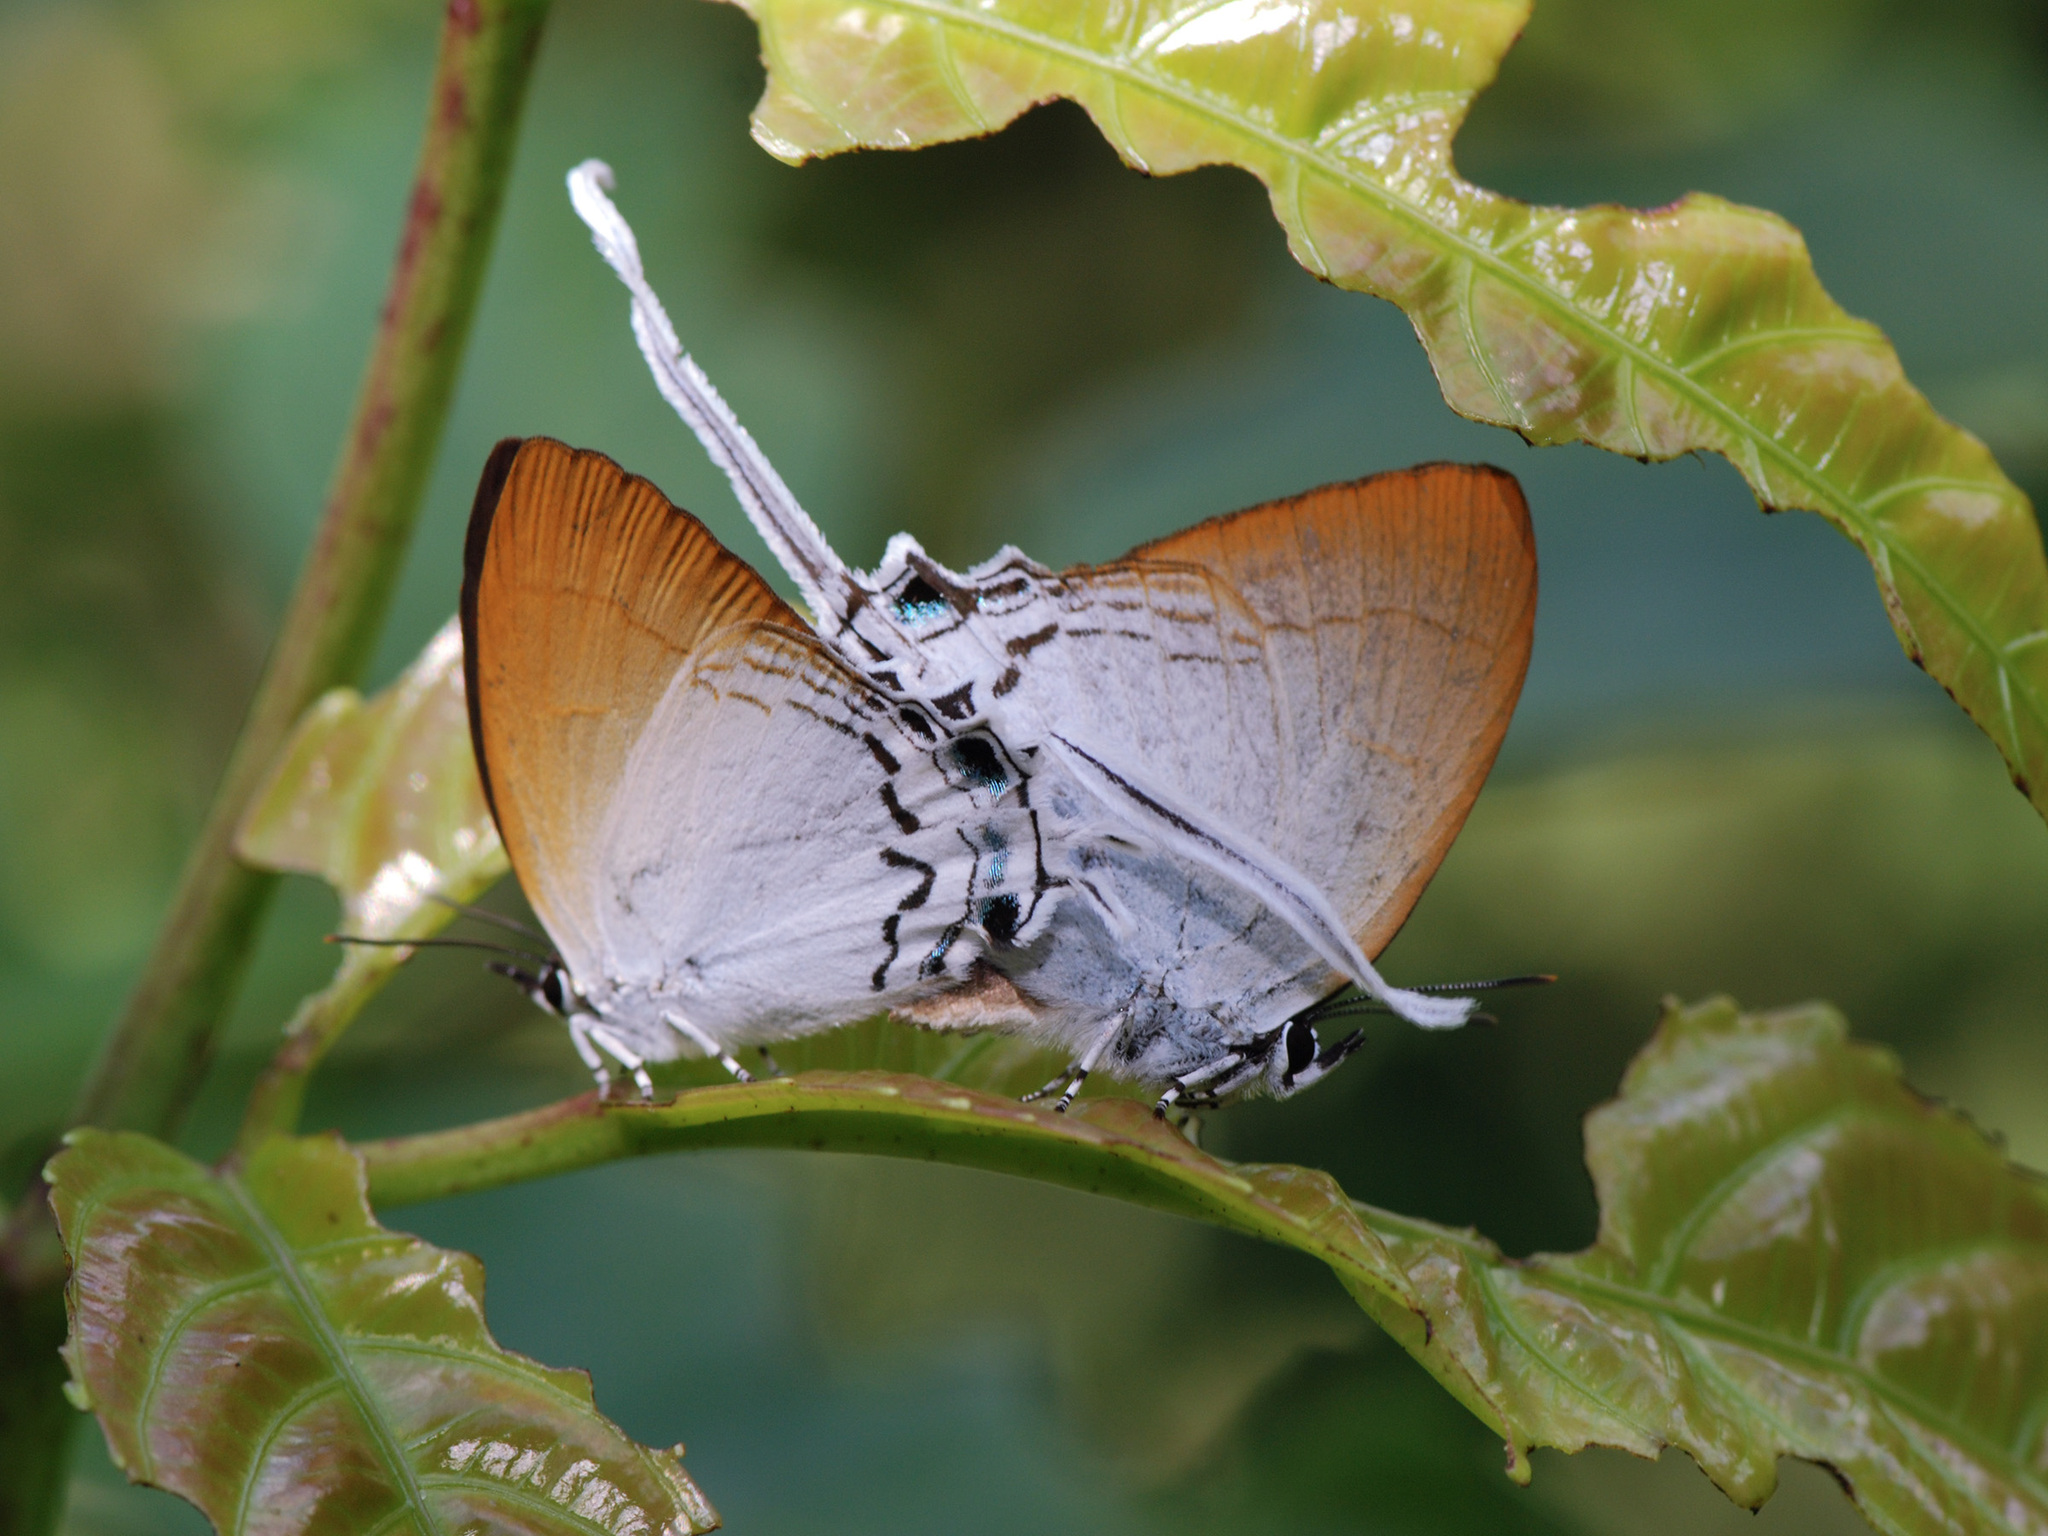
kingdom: Animalia
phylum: Arthropoda
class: Insecta
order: Lepidoptera
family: Lycaenidae
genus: Cheritra
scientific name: Cheritra freja
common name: Common imperial
